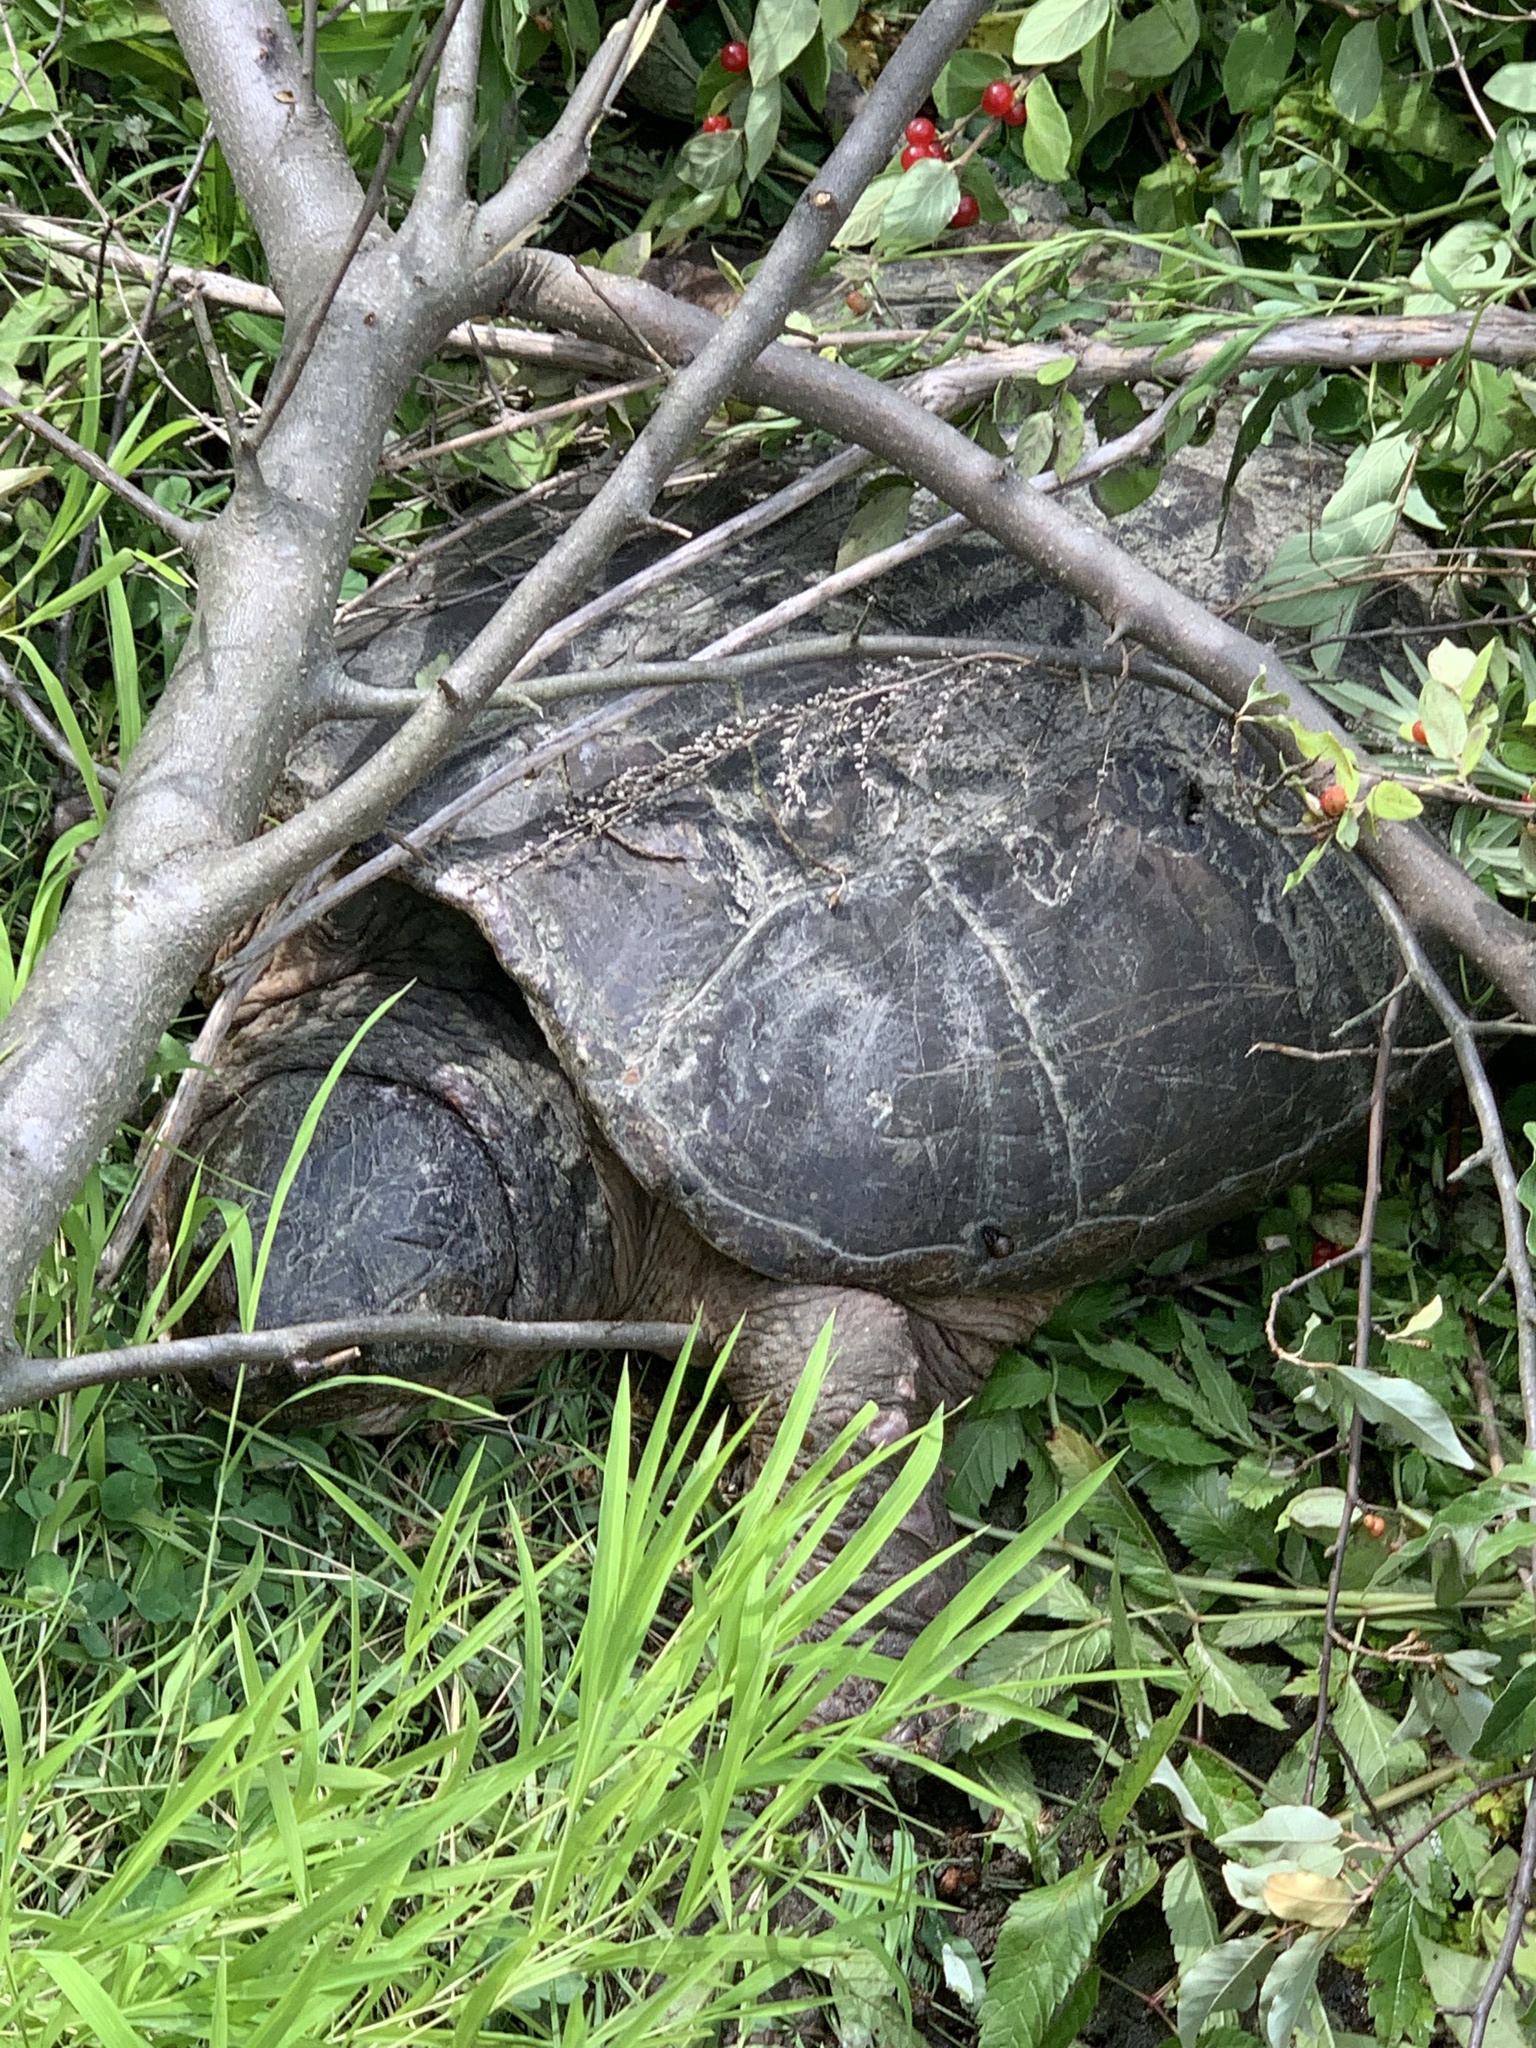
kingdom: Animalia
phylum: Chordata
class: Testudines
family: Chelydridae
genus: Chelydra
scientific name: Chelydra serpentina
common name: Common snapping turtle
